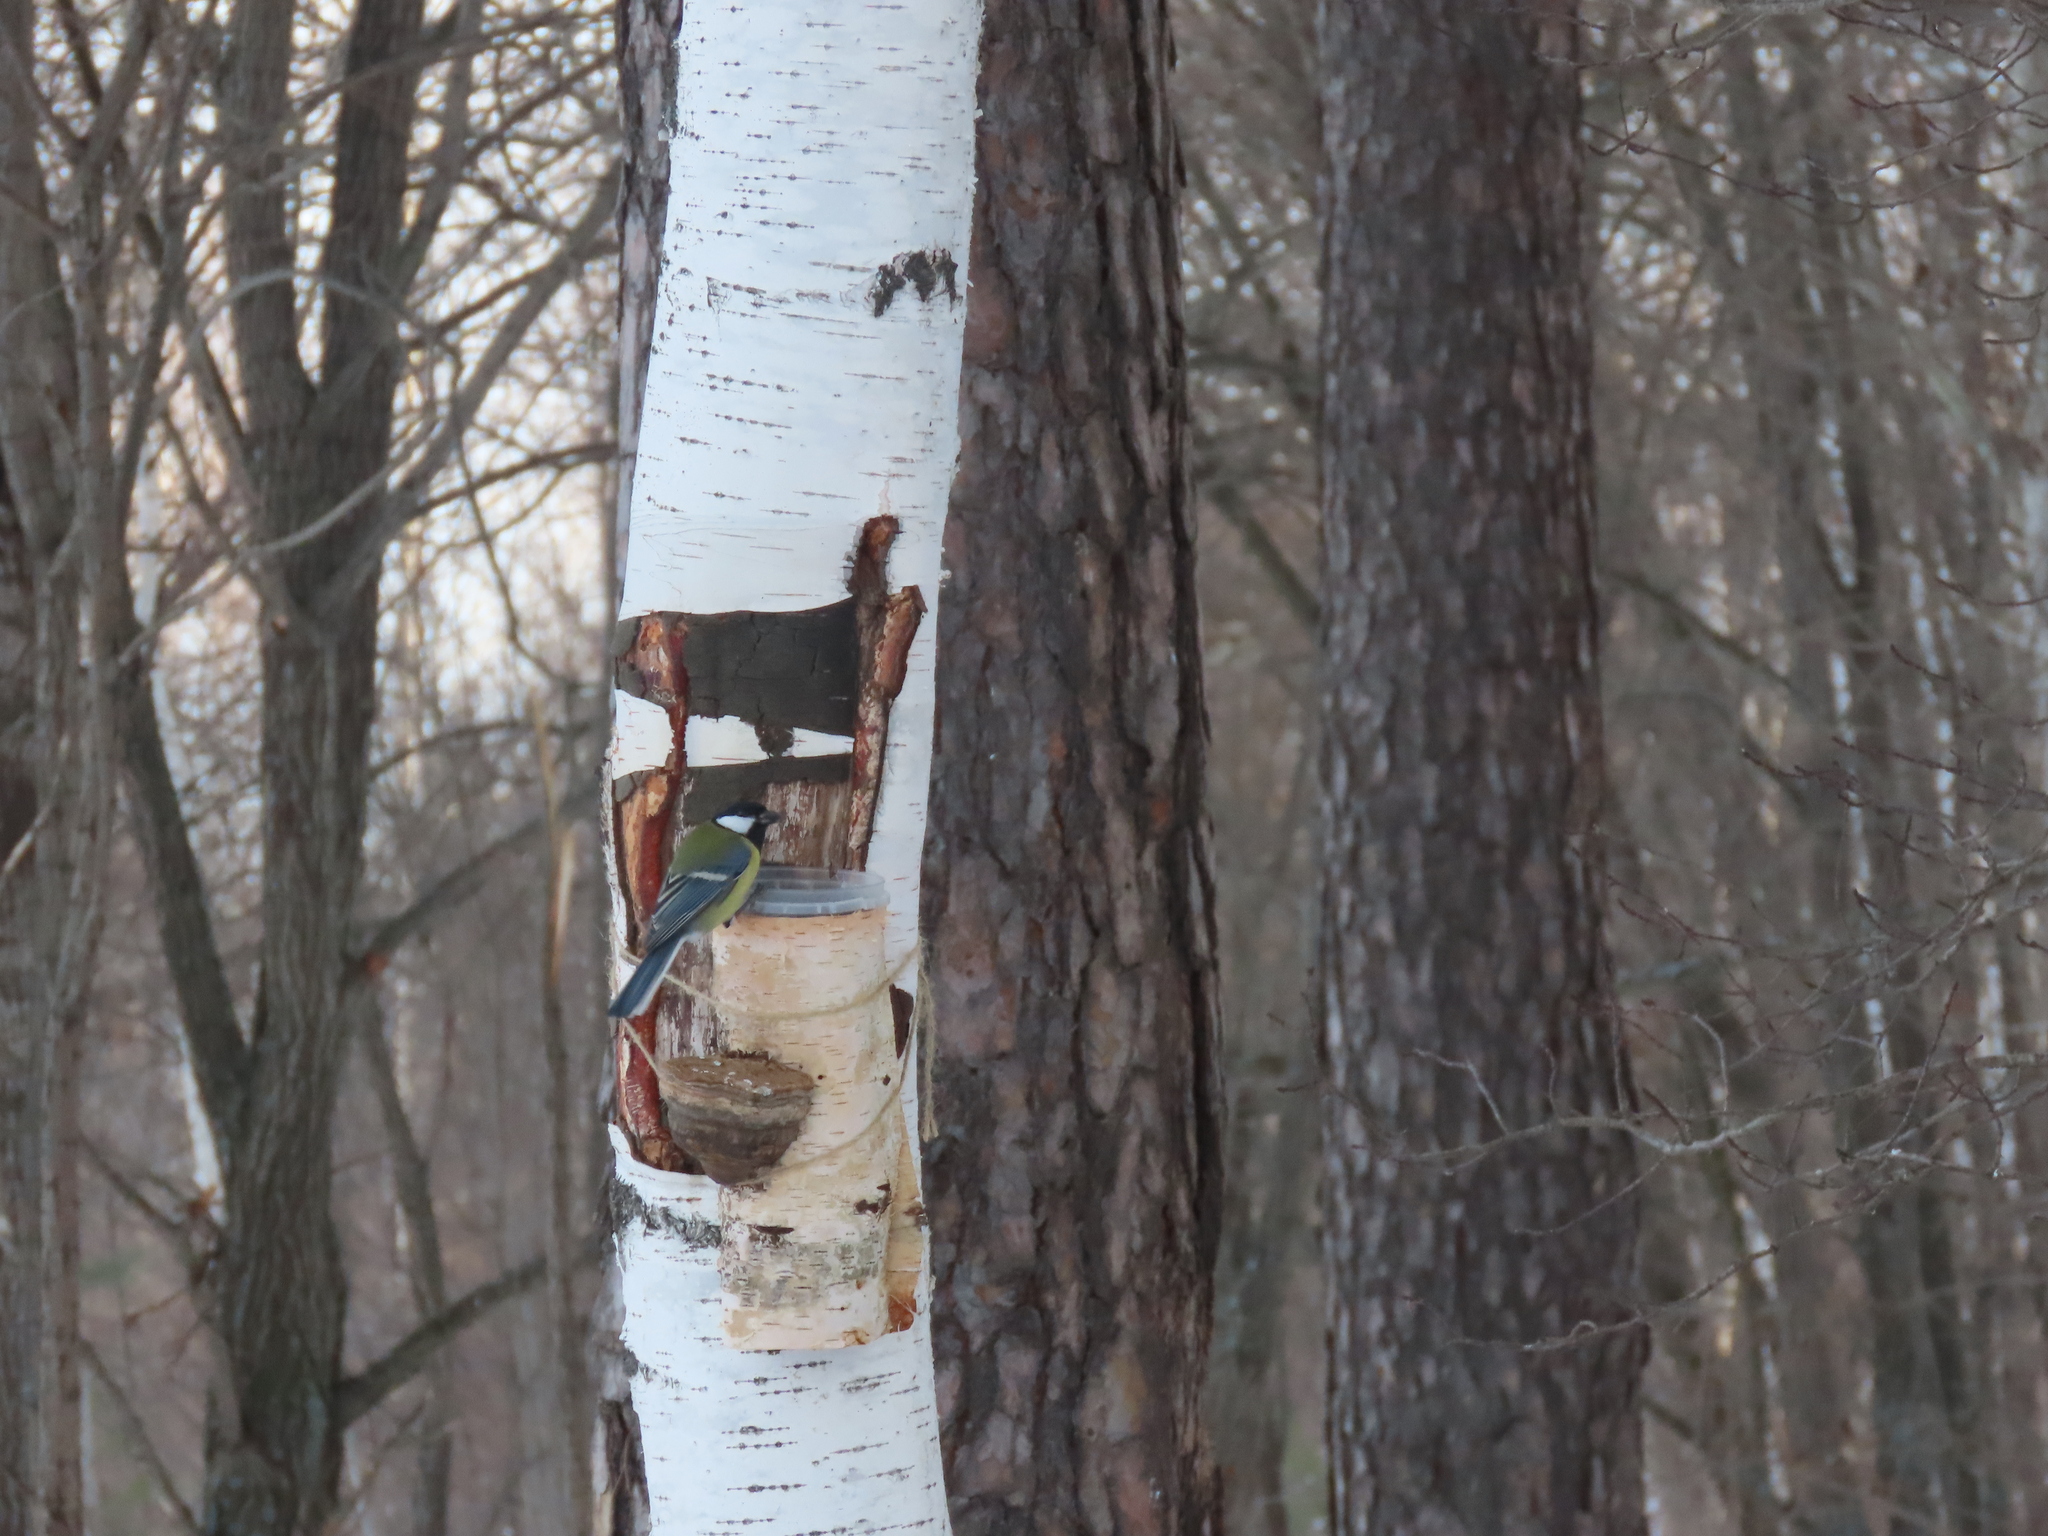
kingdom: Animalia
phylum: Chordata
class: Aves
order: Passeriformes
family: Paridae
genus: Parus
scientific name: Parus major
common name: Great tit
